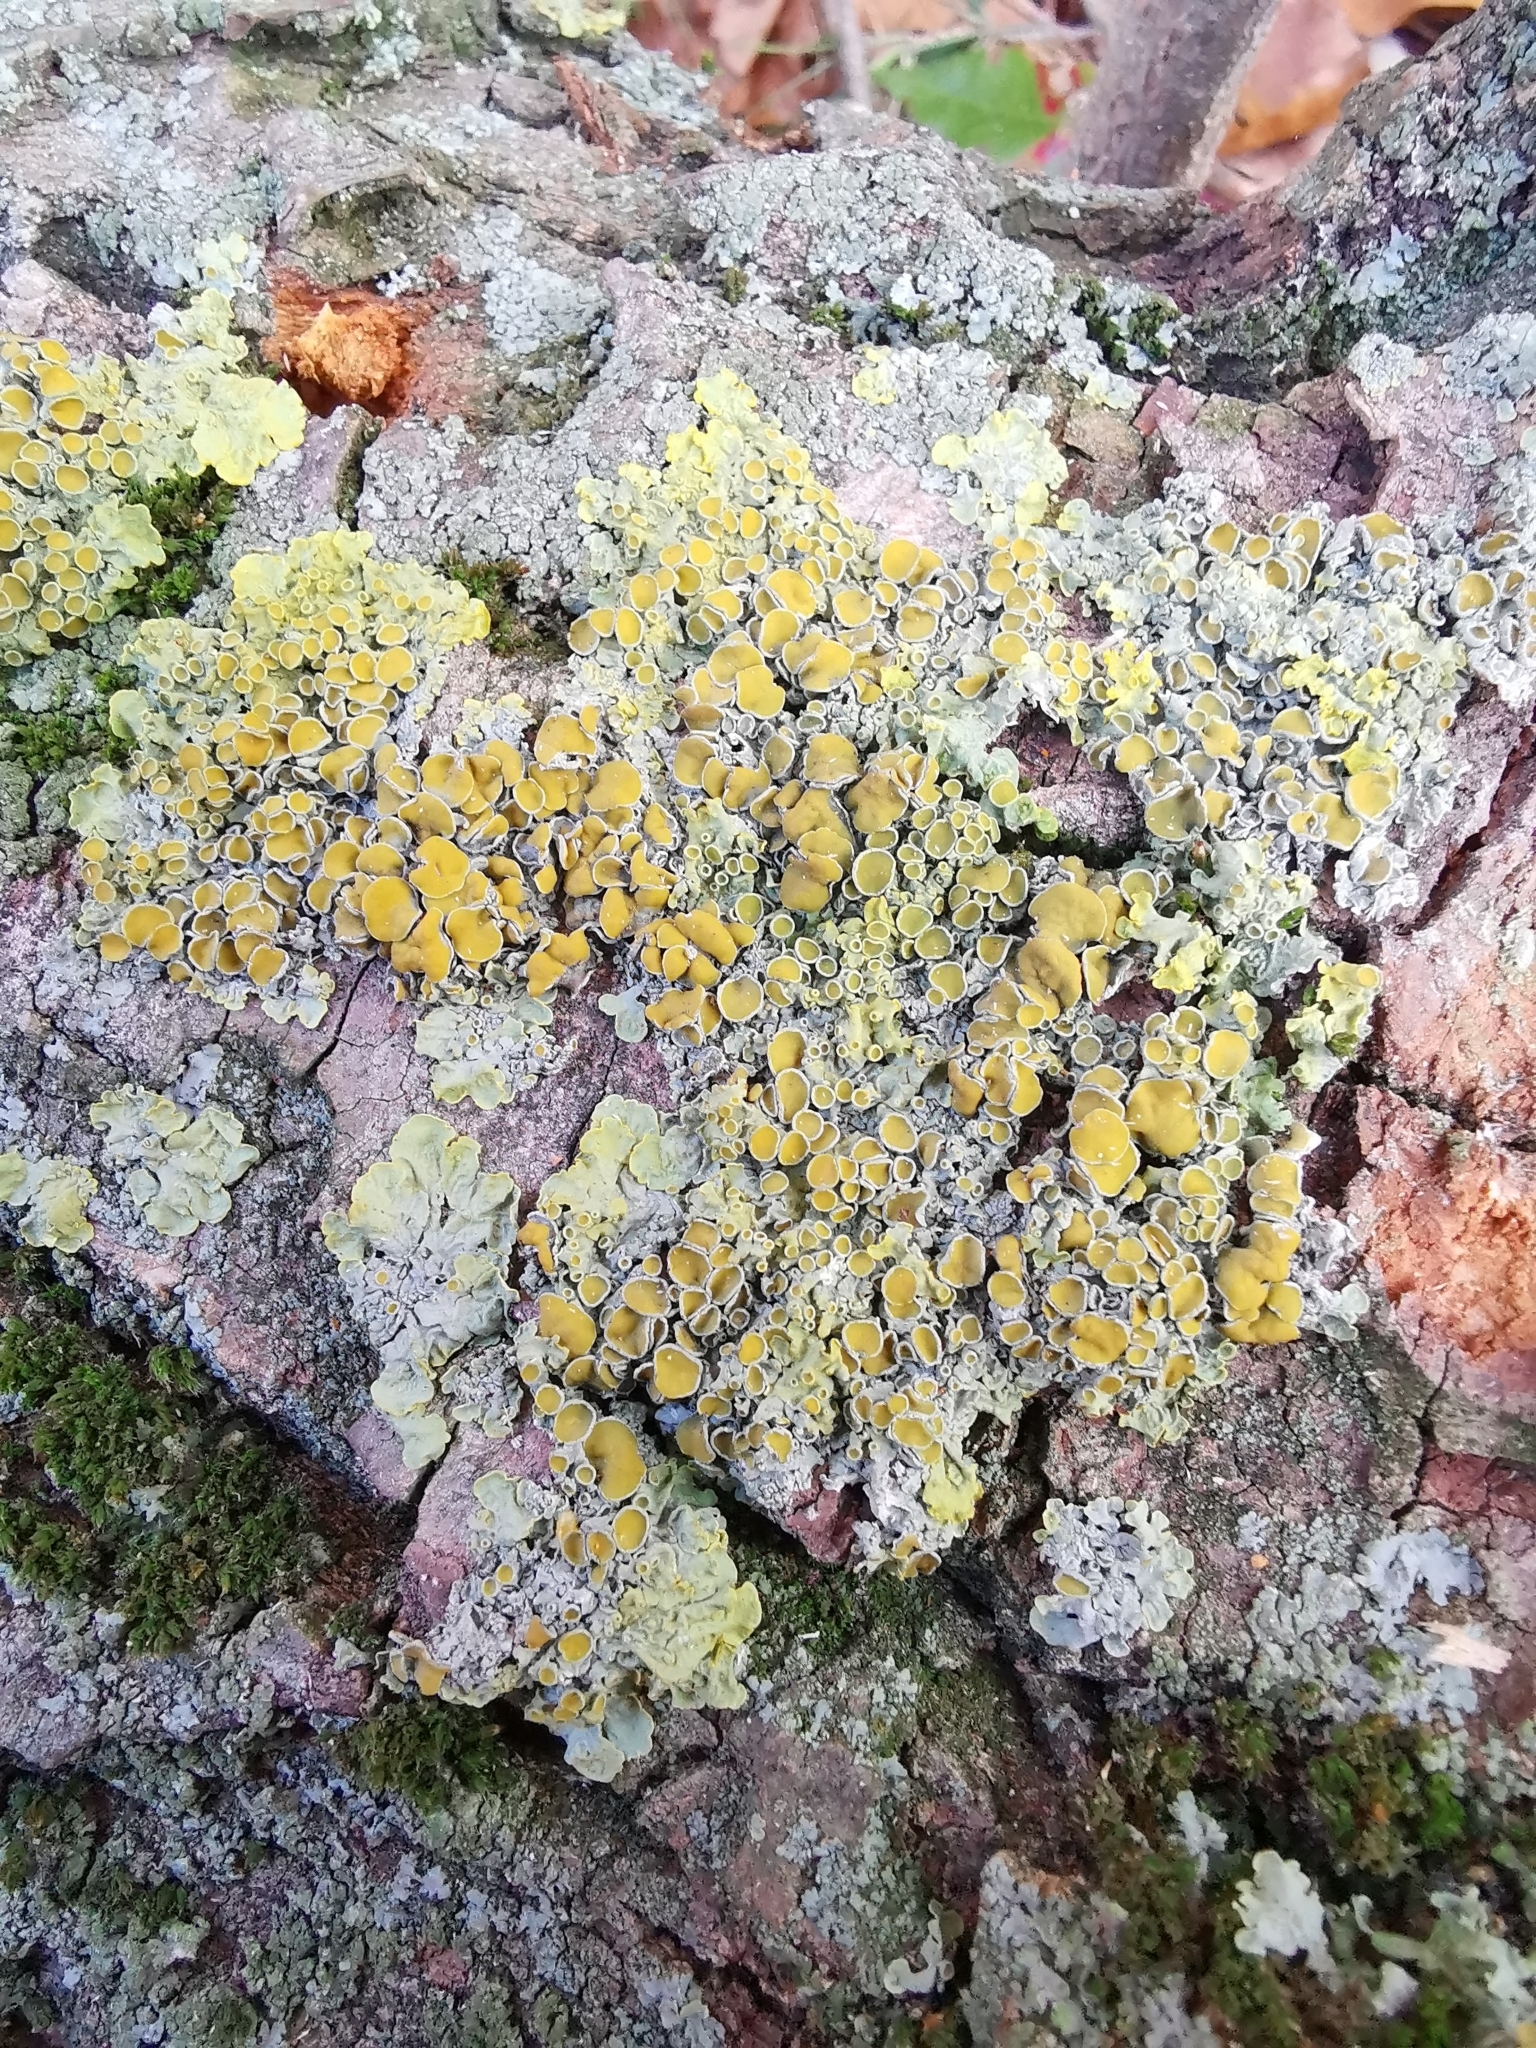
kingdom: Fungi
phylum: Ascomycota
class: Lecanoromycetes
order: Teloschistales
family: Teloschistaceae
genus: Xanthoria
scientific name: Xanthoria parietina
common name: Common orange lichen
